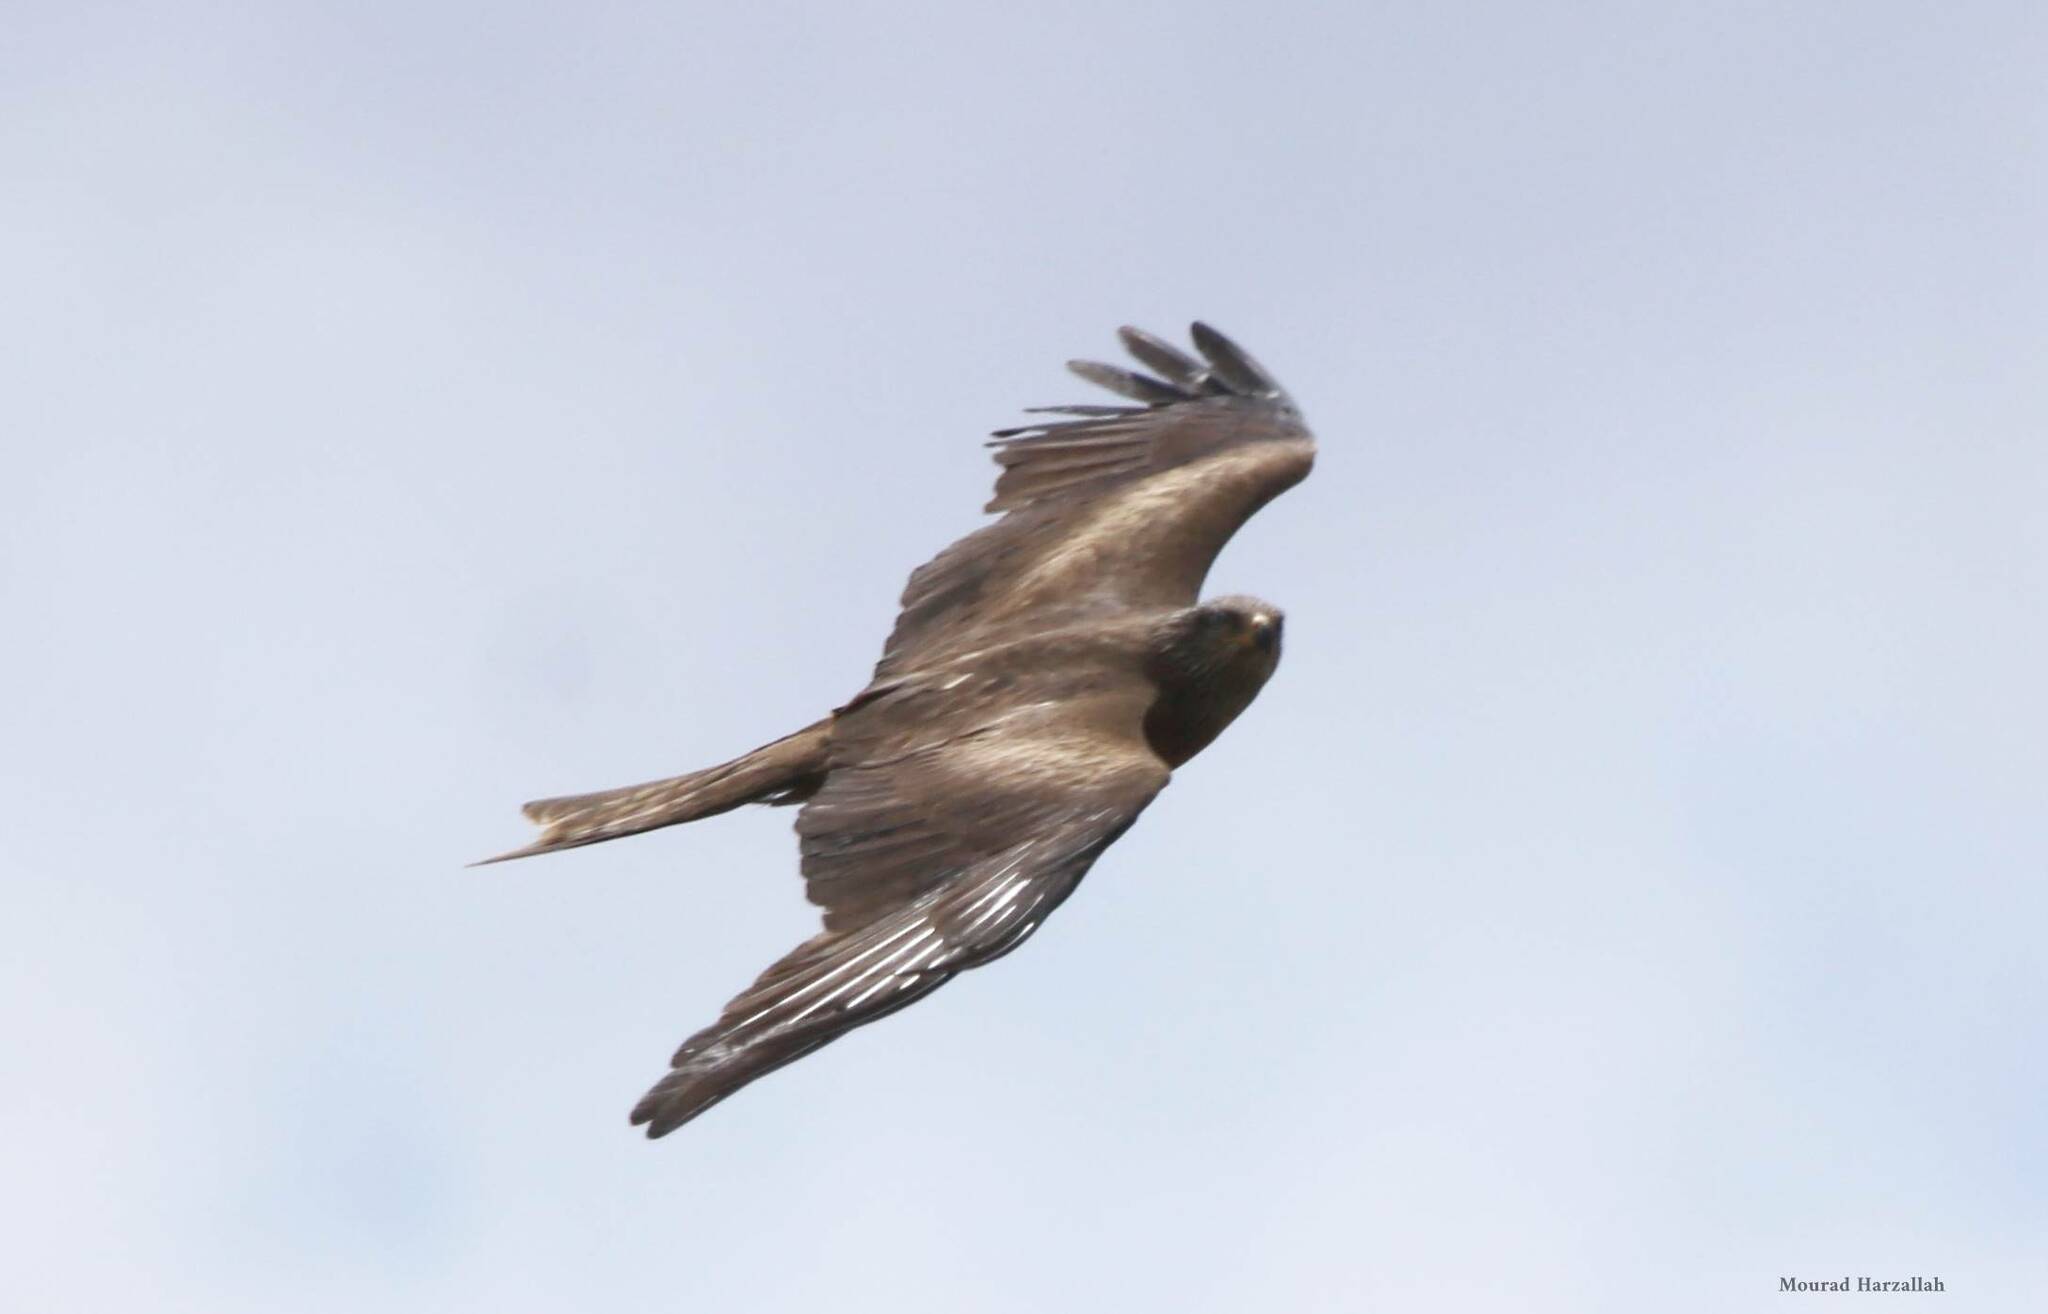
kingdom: Animalia
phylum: Chordata
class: Aves
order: Accipitriformes
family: Accipitridae
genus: Milvus
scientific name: Milvus migrans
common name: Black kite
